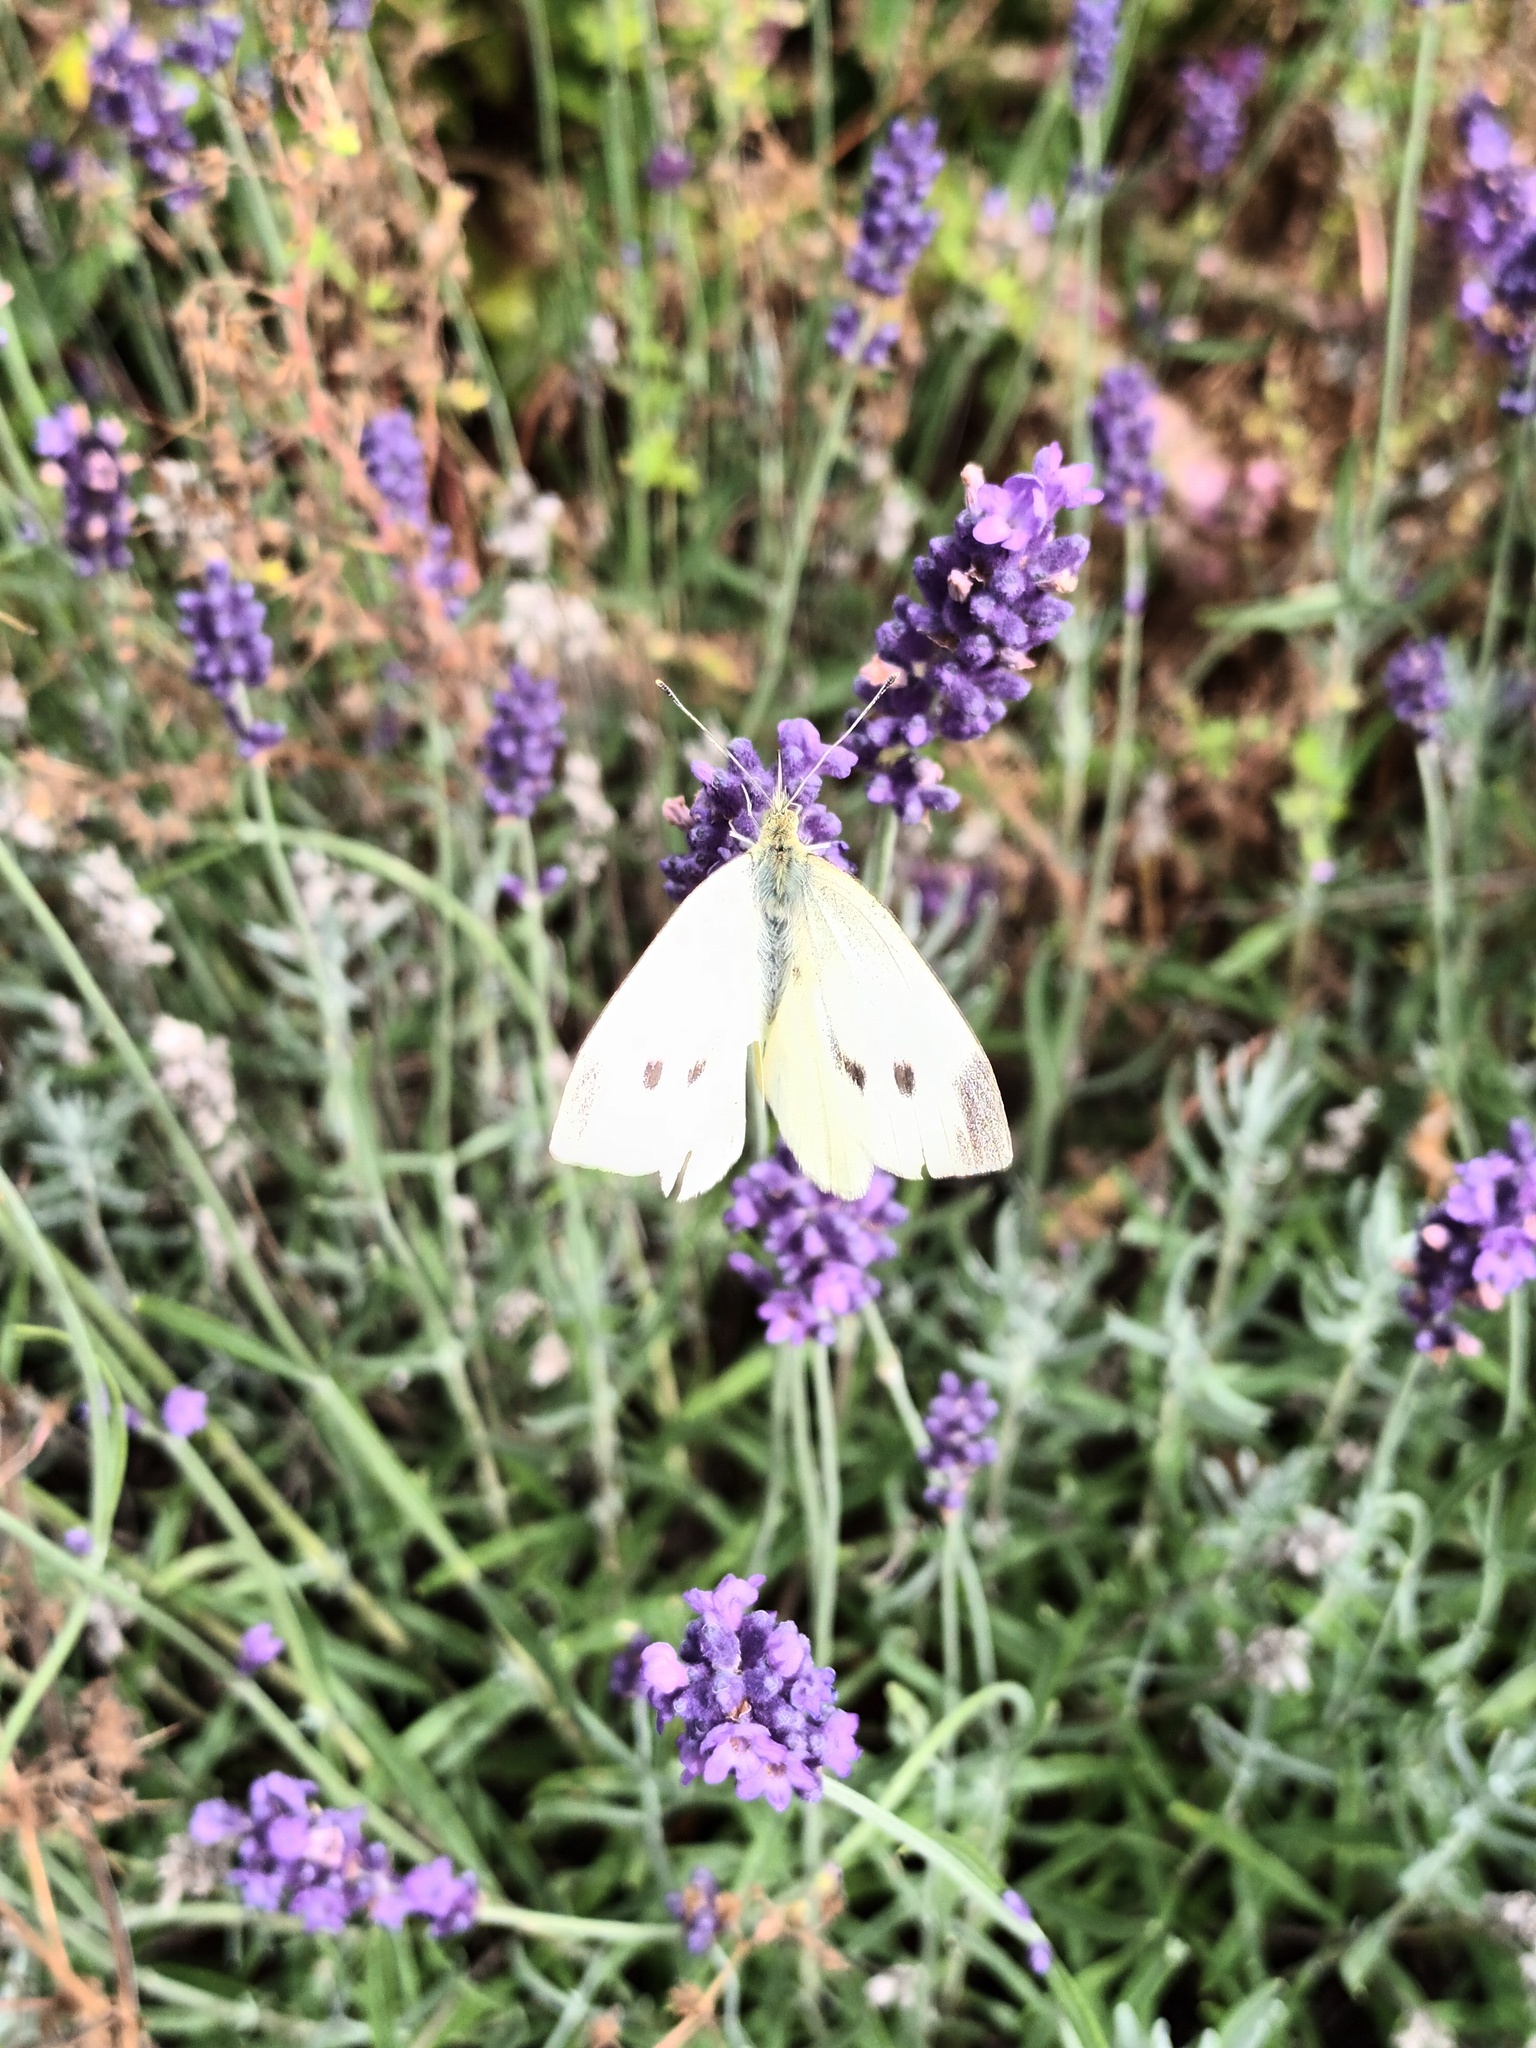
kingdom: Animalia
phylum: Arthropoda
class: Insecta
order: Lepidoptera
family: Pieridae
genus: Pieris
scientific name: Pieris rapae
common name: Small white
